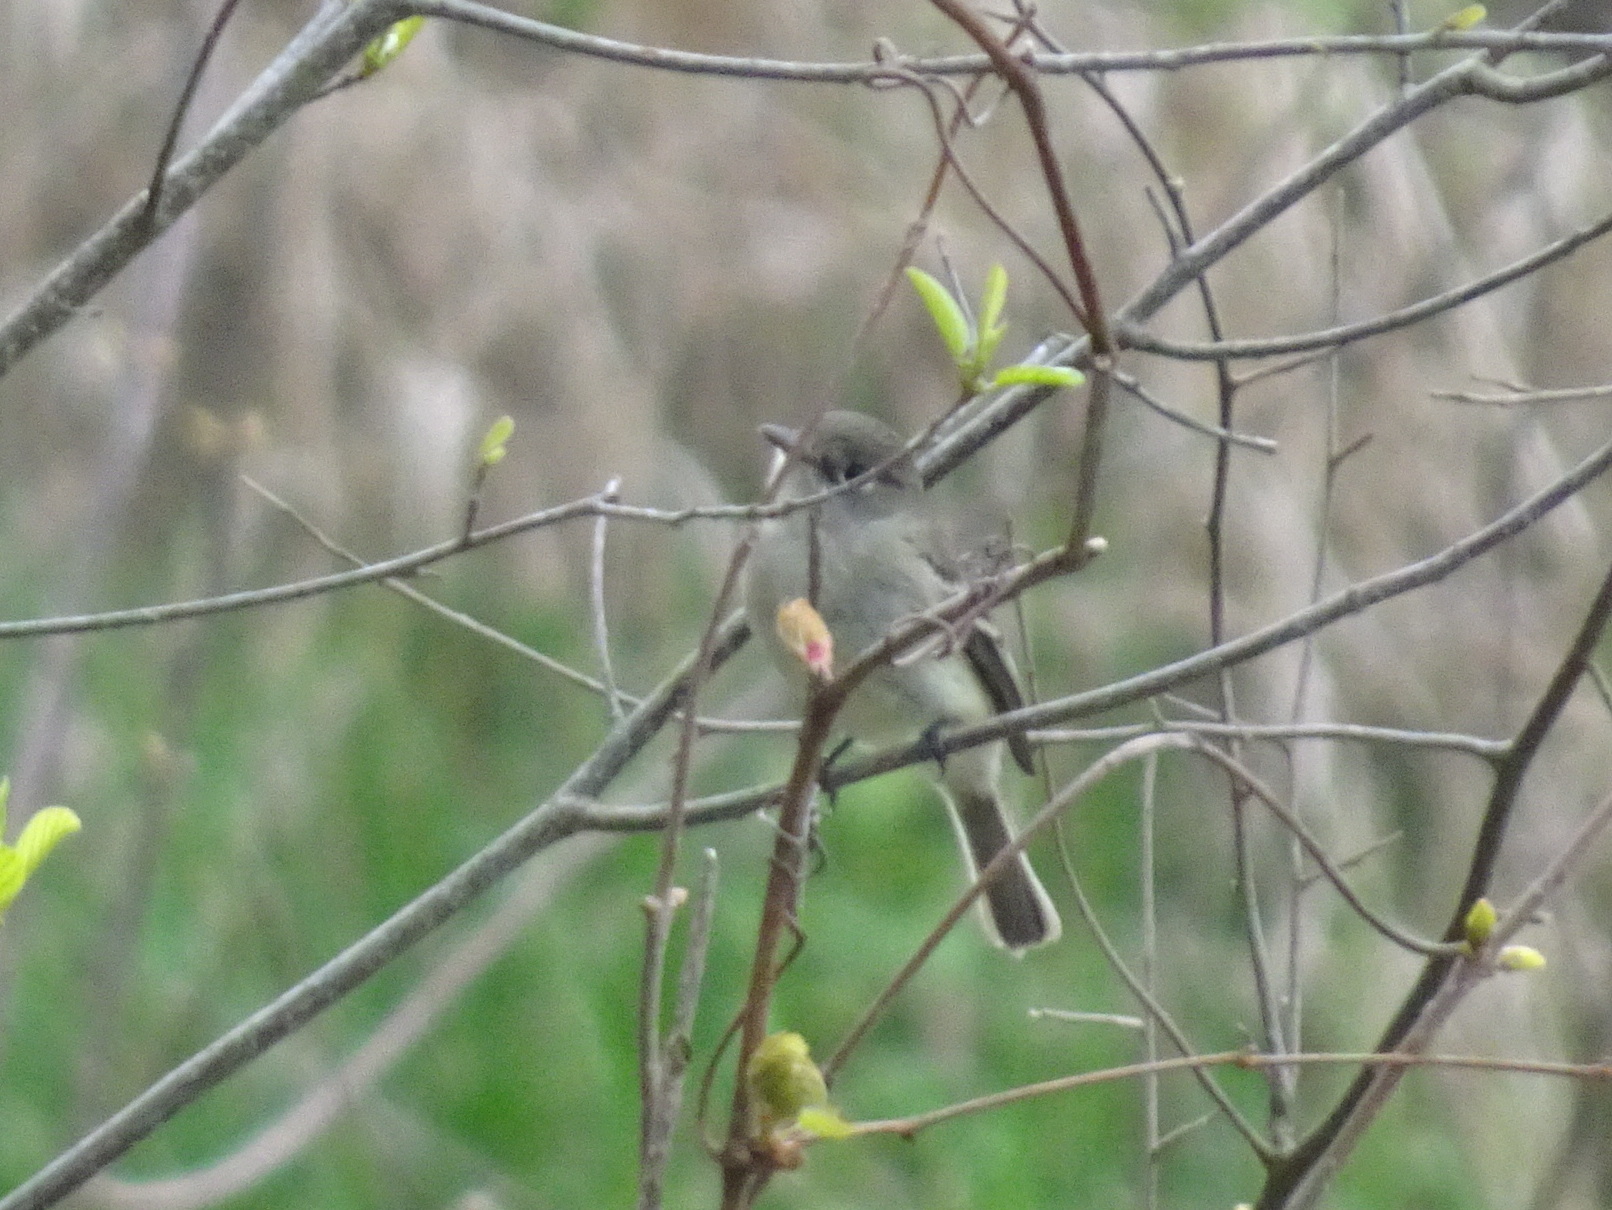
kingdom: Animalia
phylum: Chordata
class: Aves
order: Passeriformes
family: Tyrannidae
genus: Empidonax
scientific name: Empidonax minimus
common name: Least flycatcher
